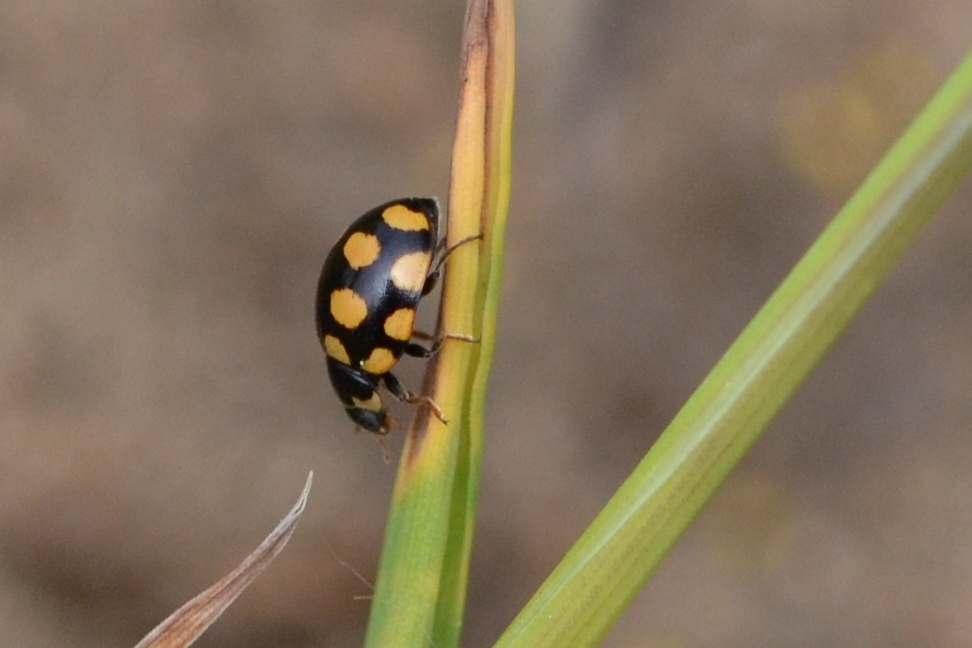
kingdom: Animalia
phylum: Arthropoda
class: Insecta
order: Coleoptera
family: Coccinellidae
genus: Coccinula
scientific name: Coccinula quatuordecimpustulata
